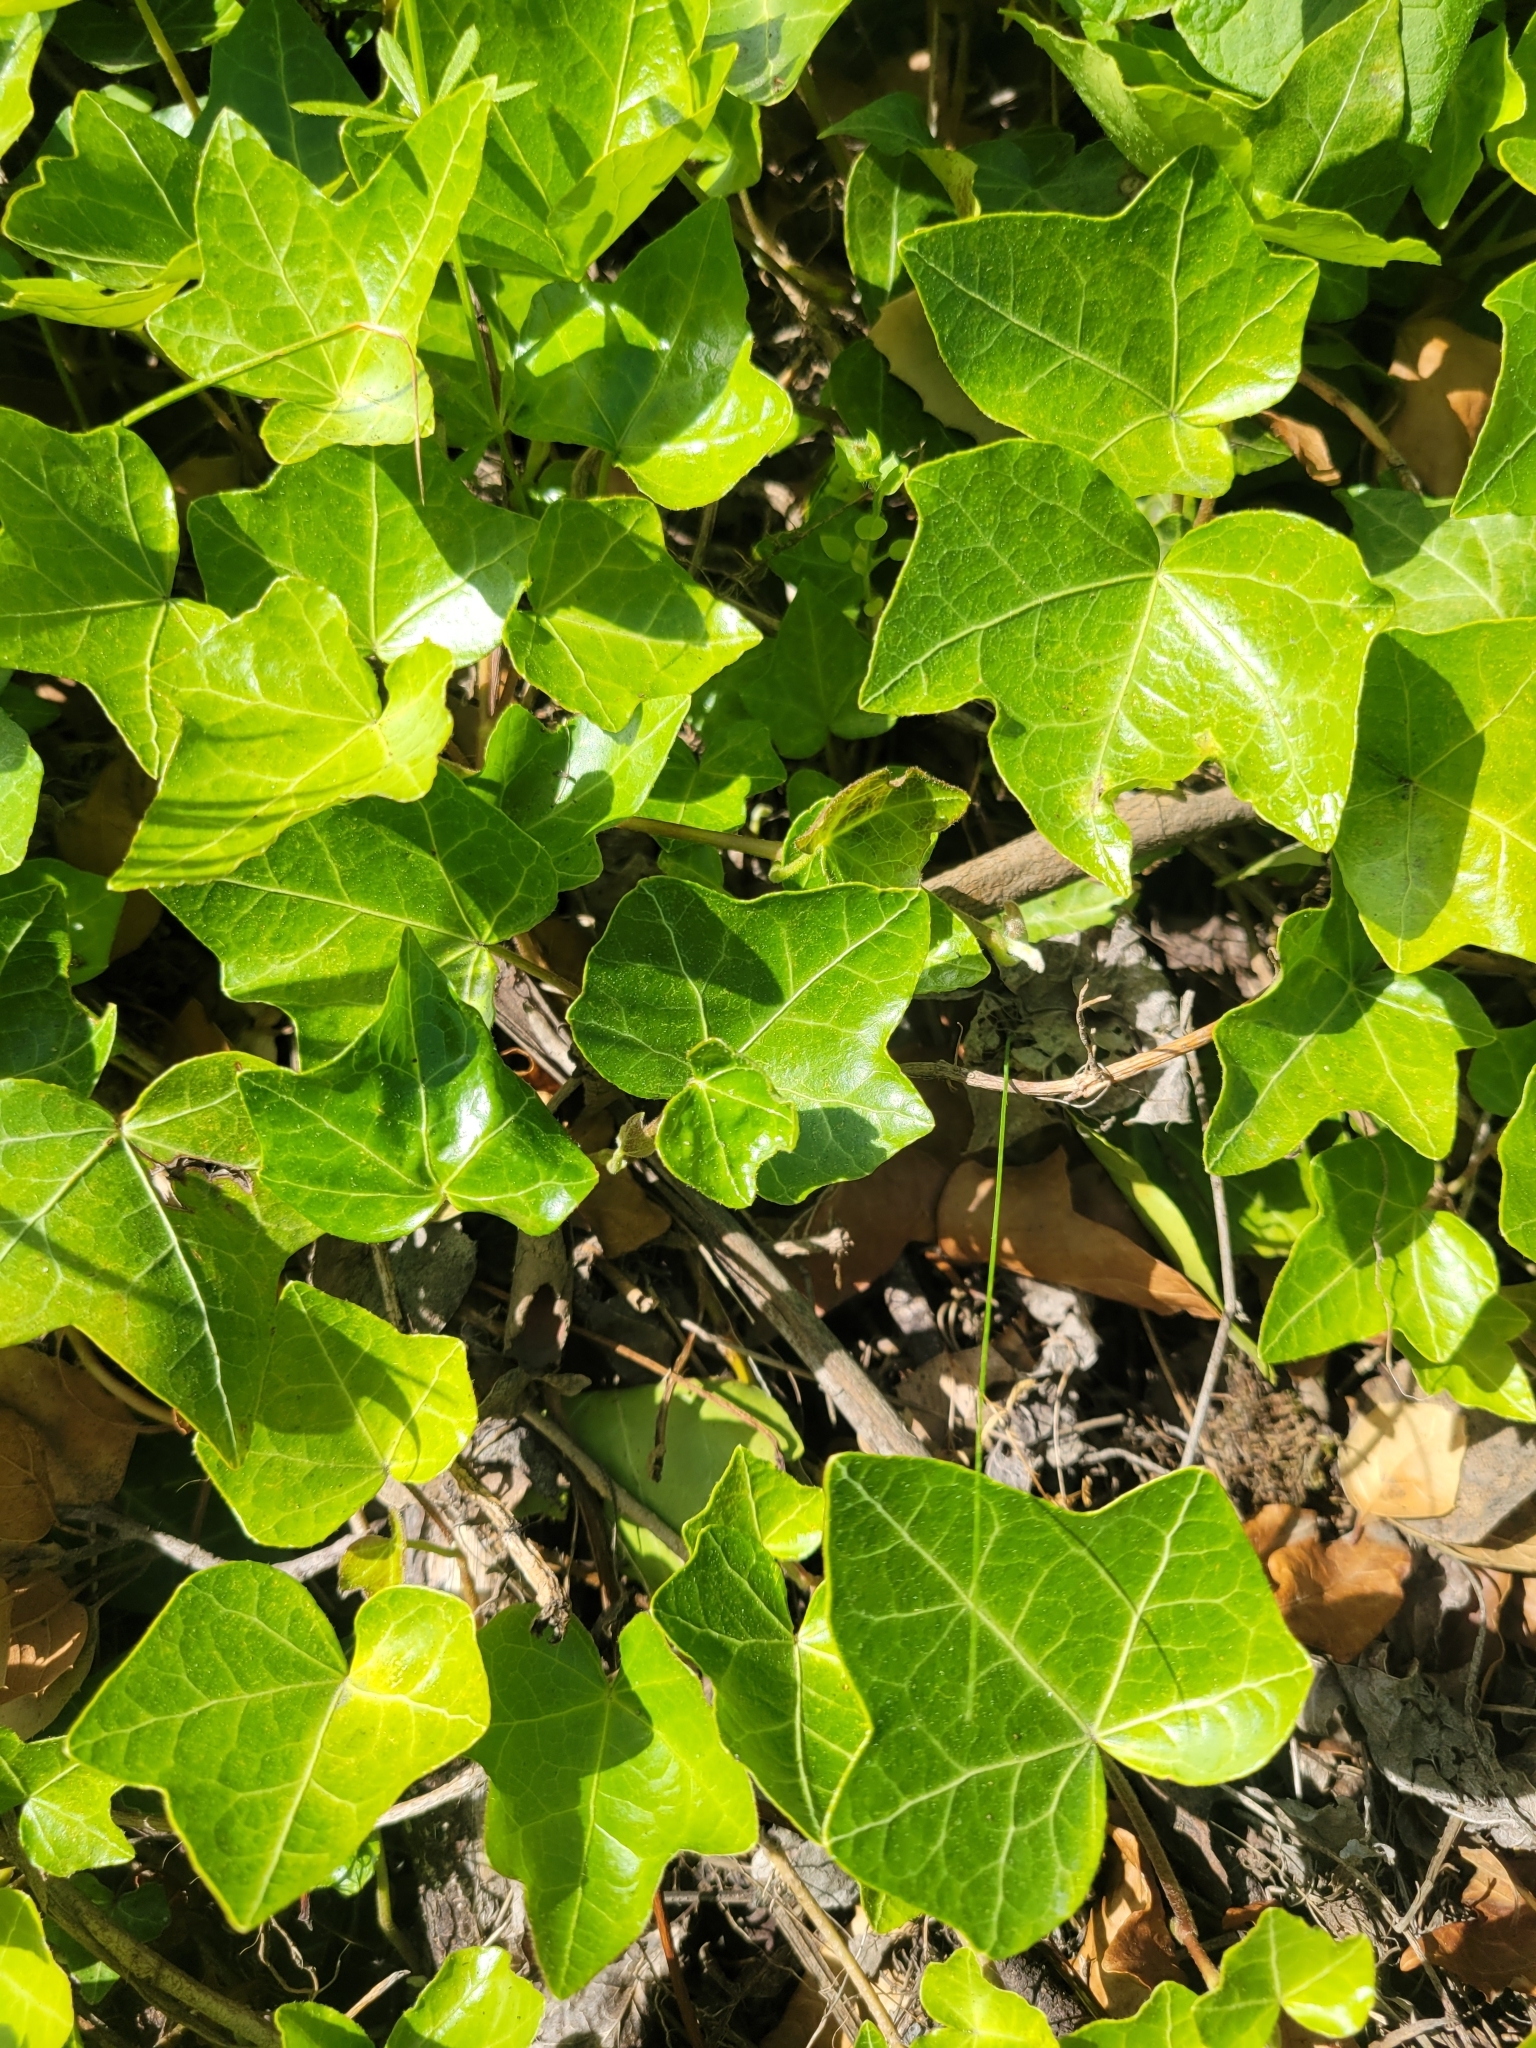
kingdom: Plantae
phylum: Tracheophyta
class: Magnoliopsida
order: Apiales
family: Araliaceae
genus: Hedera
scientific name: Hedera helix
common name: Ivy
